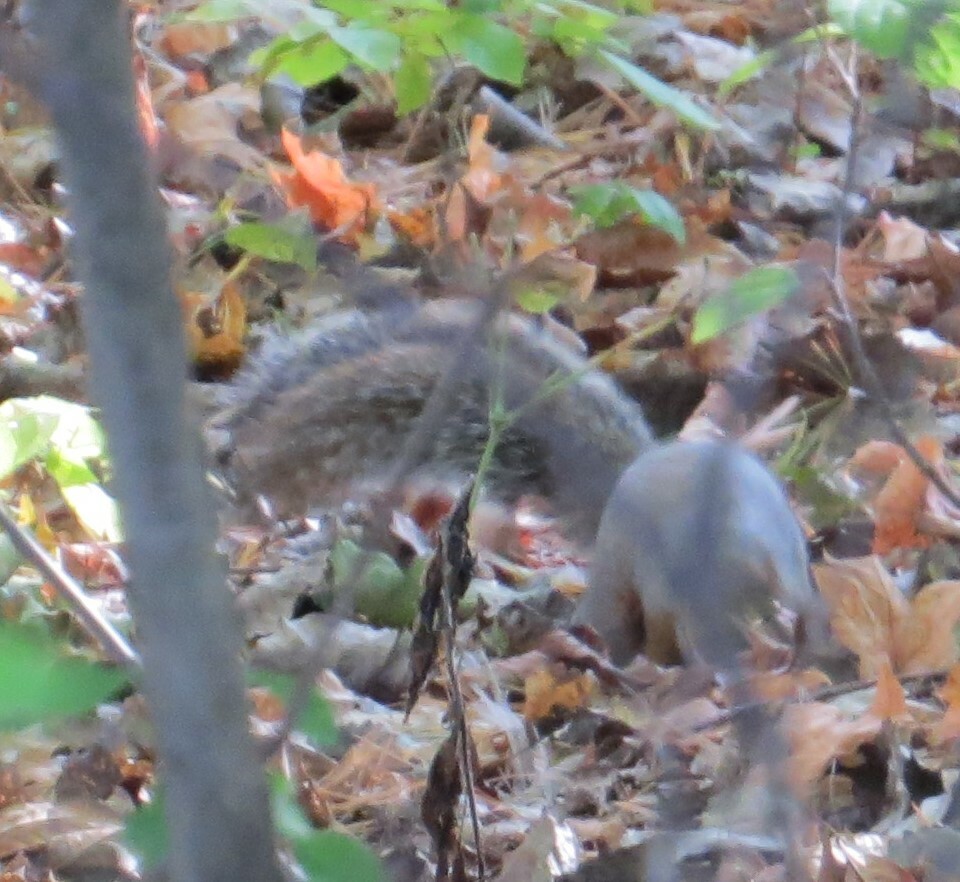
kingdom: Animalia
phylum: Chordata
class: Mammalia
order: Rodentia
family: Sciuridae
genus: Sciurus
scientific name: Sciurus carolinensis
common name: Eastern gray squirrel
